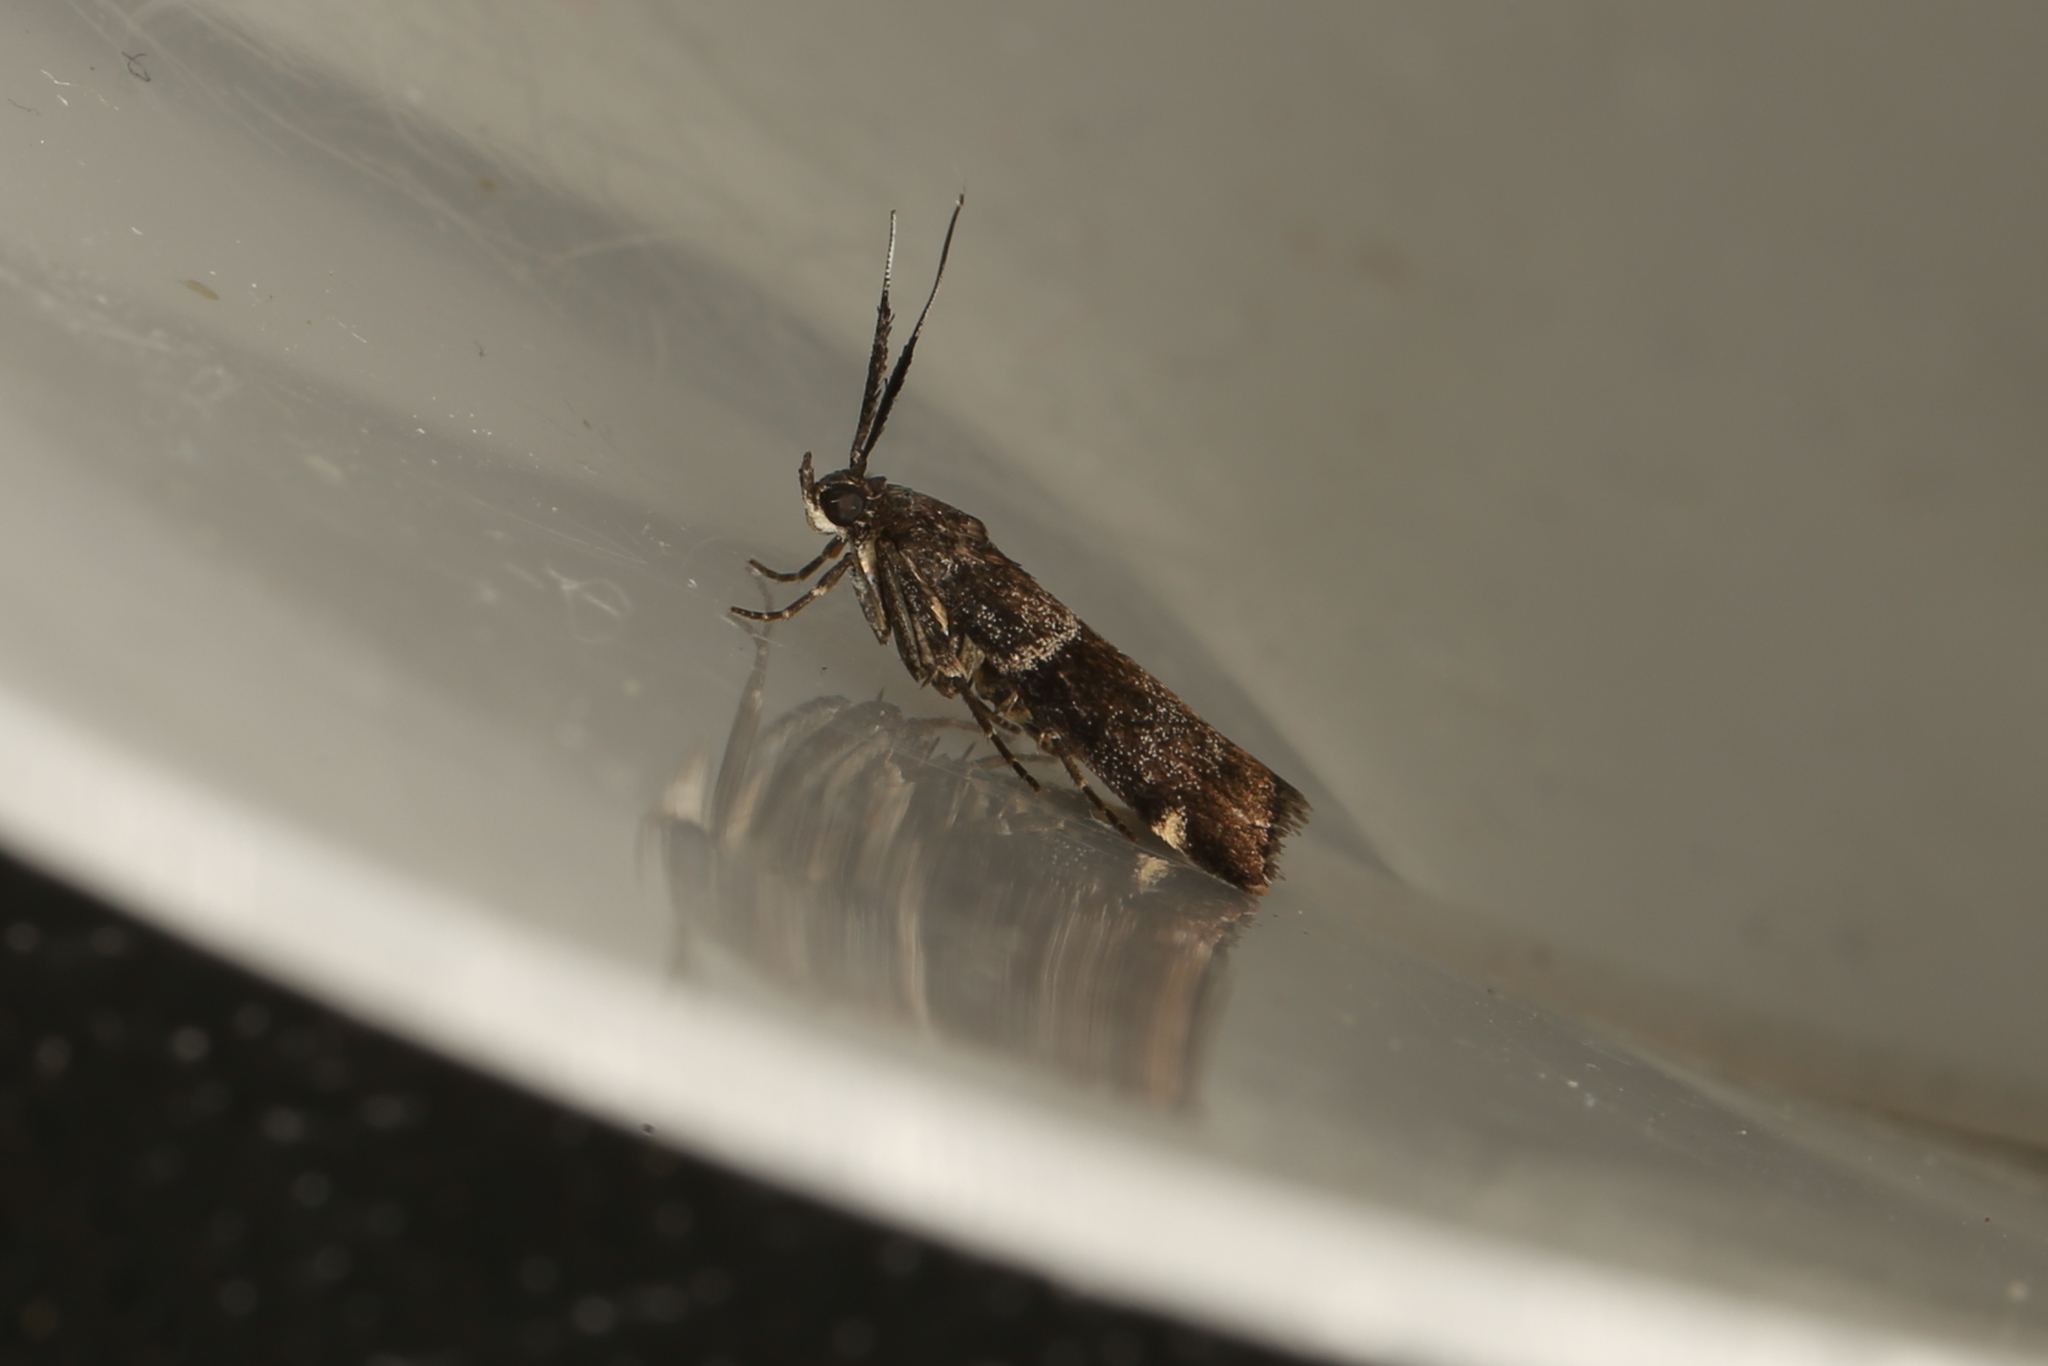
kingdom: Animalia
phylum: Arthropoda
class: Insecta
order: Lepidoptera
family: Pyralidae
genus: Lasiosticha
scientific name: Lasiosticha canilinea
